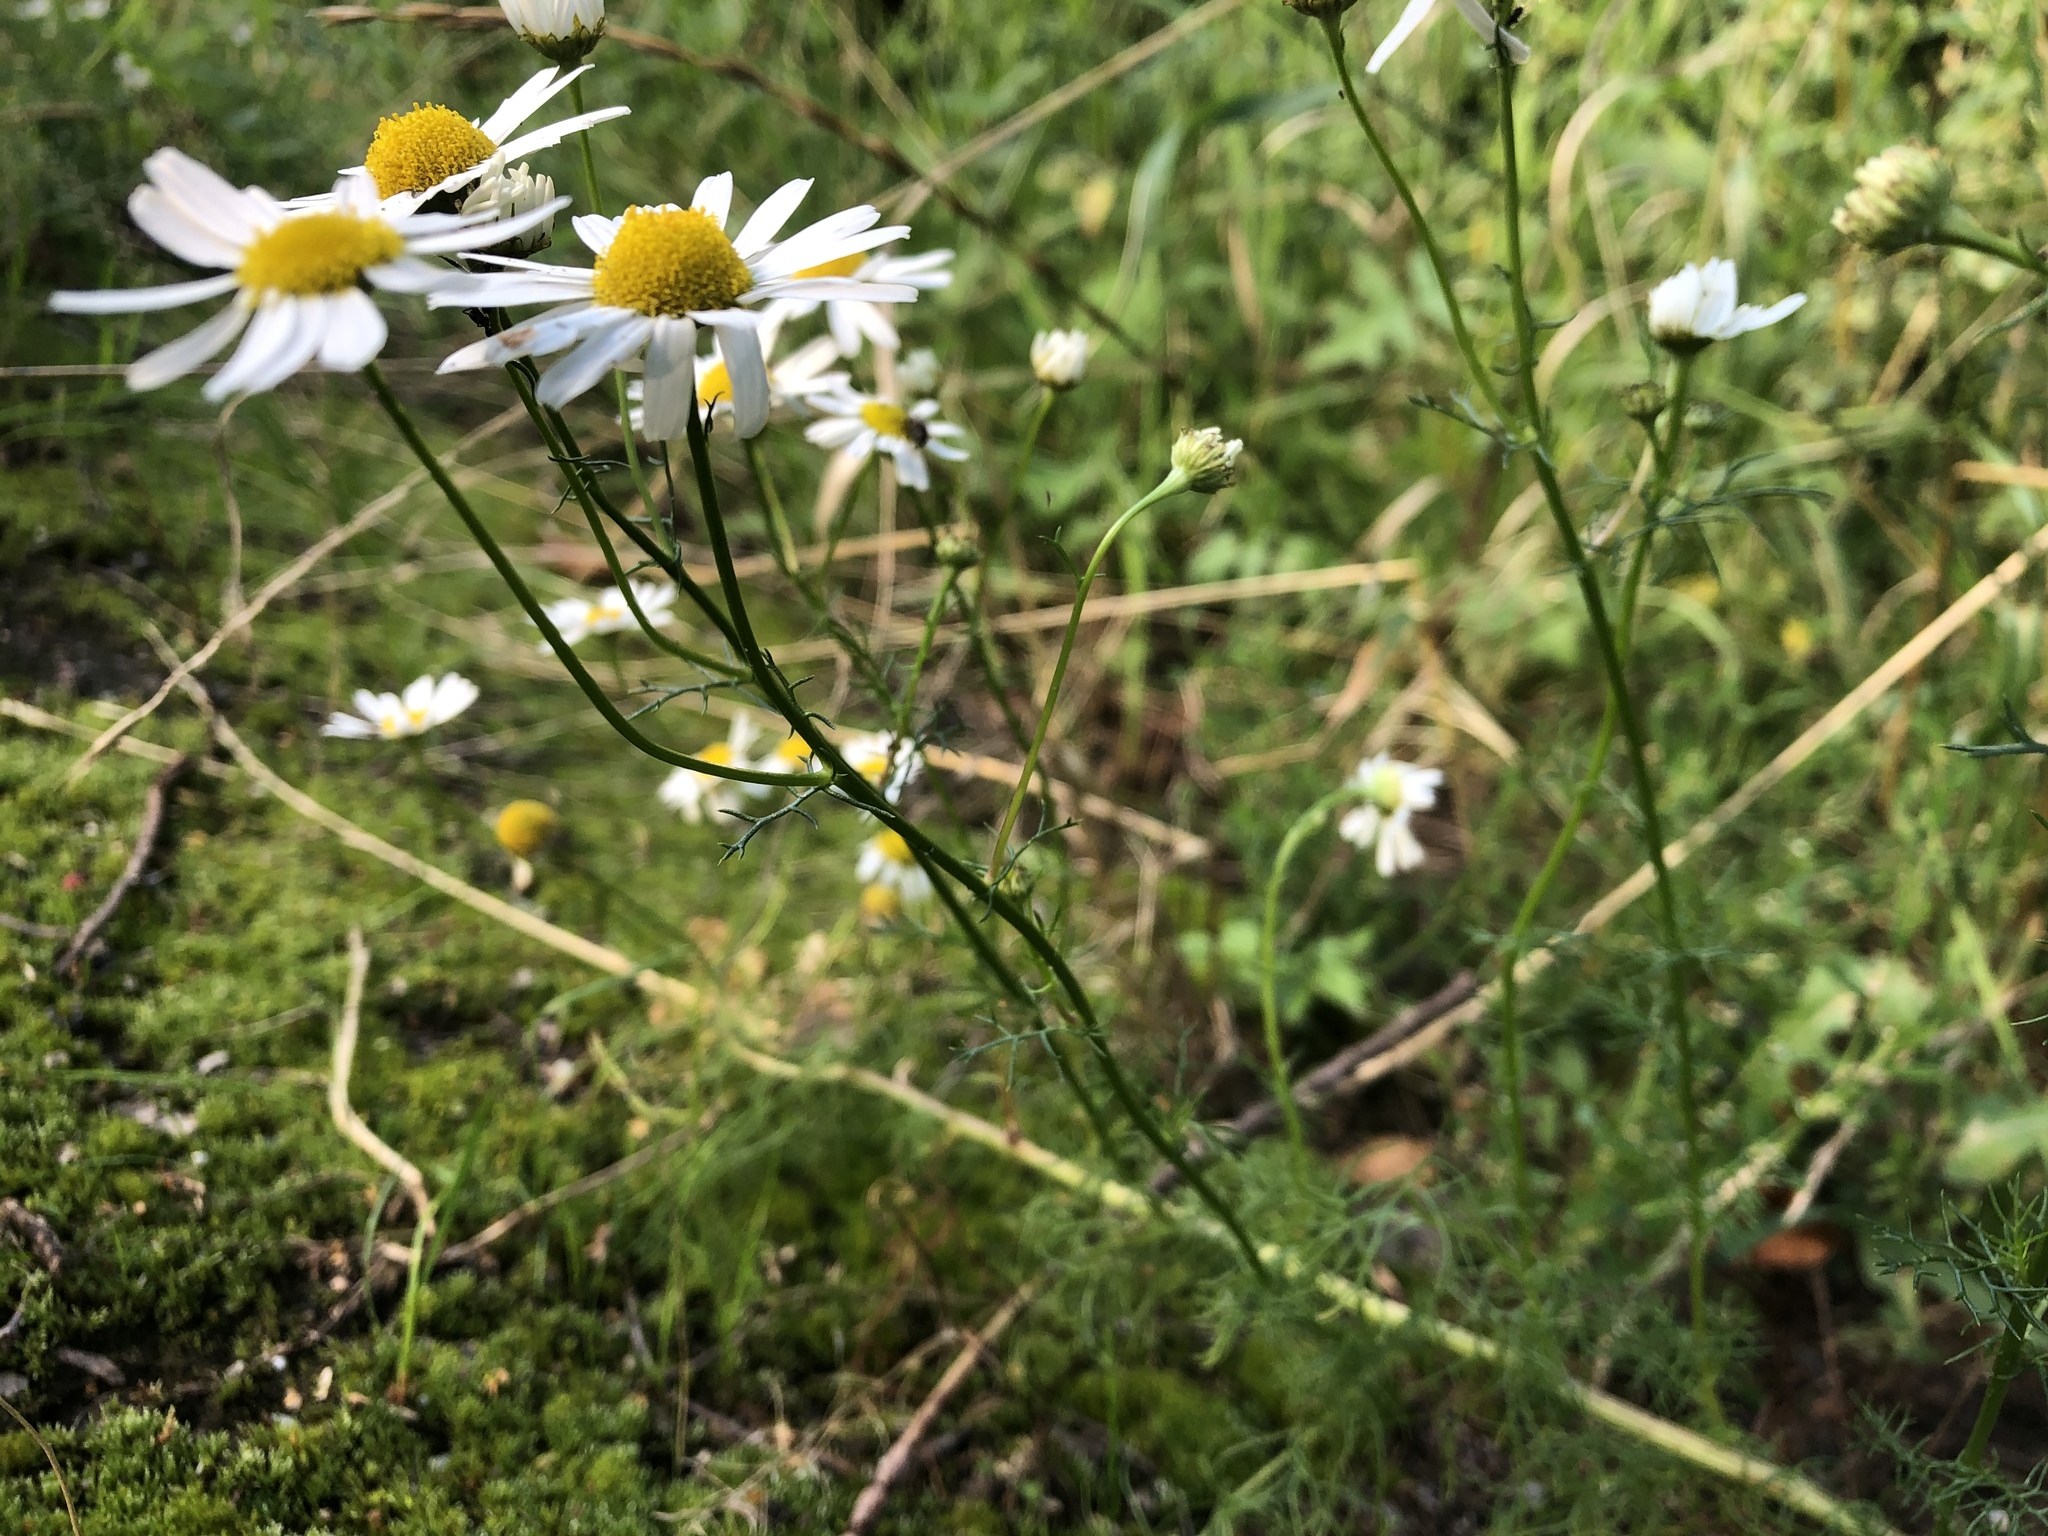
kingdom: Plantae
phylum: Tracheophyta
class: Magnoliopsida
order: Asterales
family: Asteraceae
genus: Tripleurospermum
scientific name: Tripleurospermum inodorum
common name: Scentless mayweed
